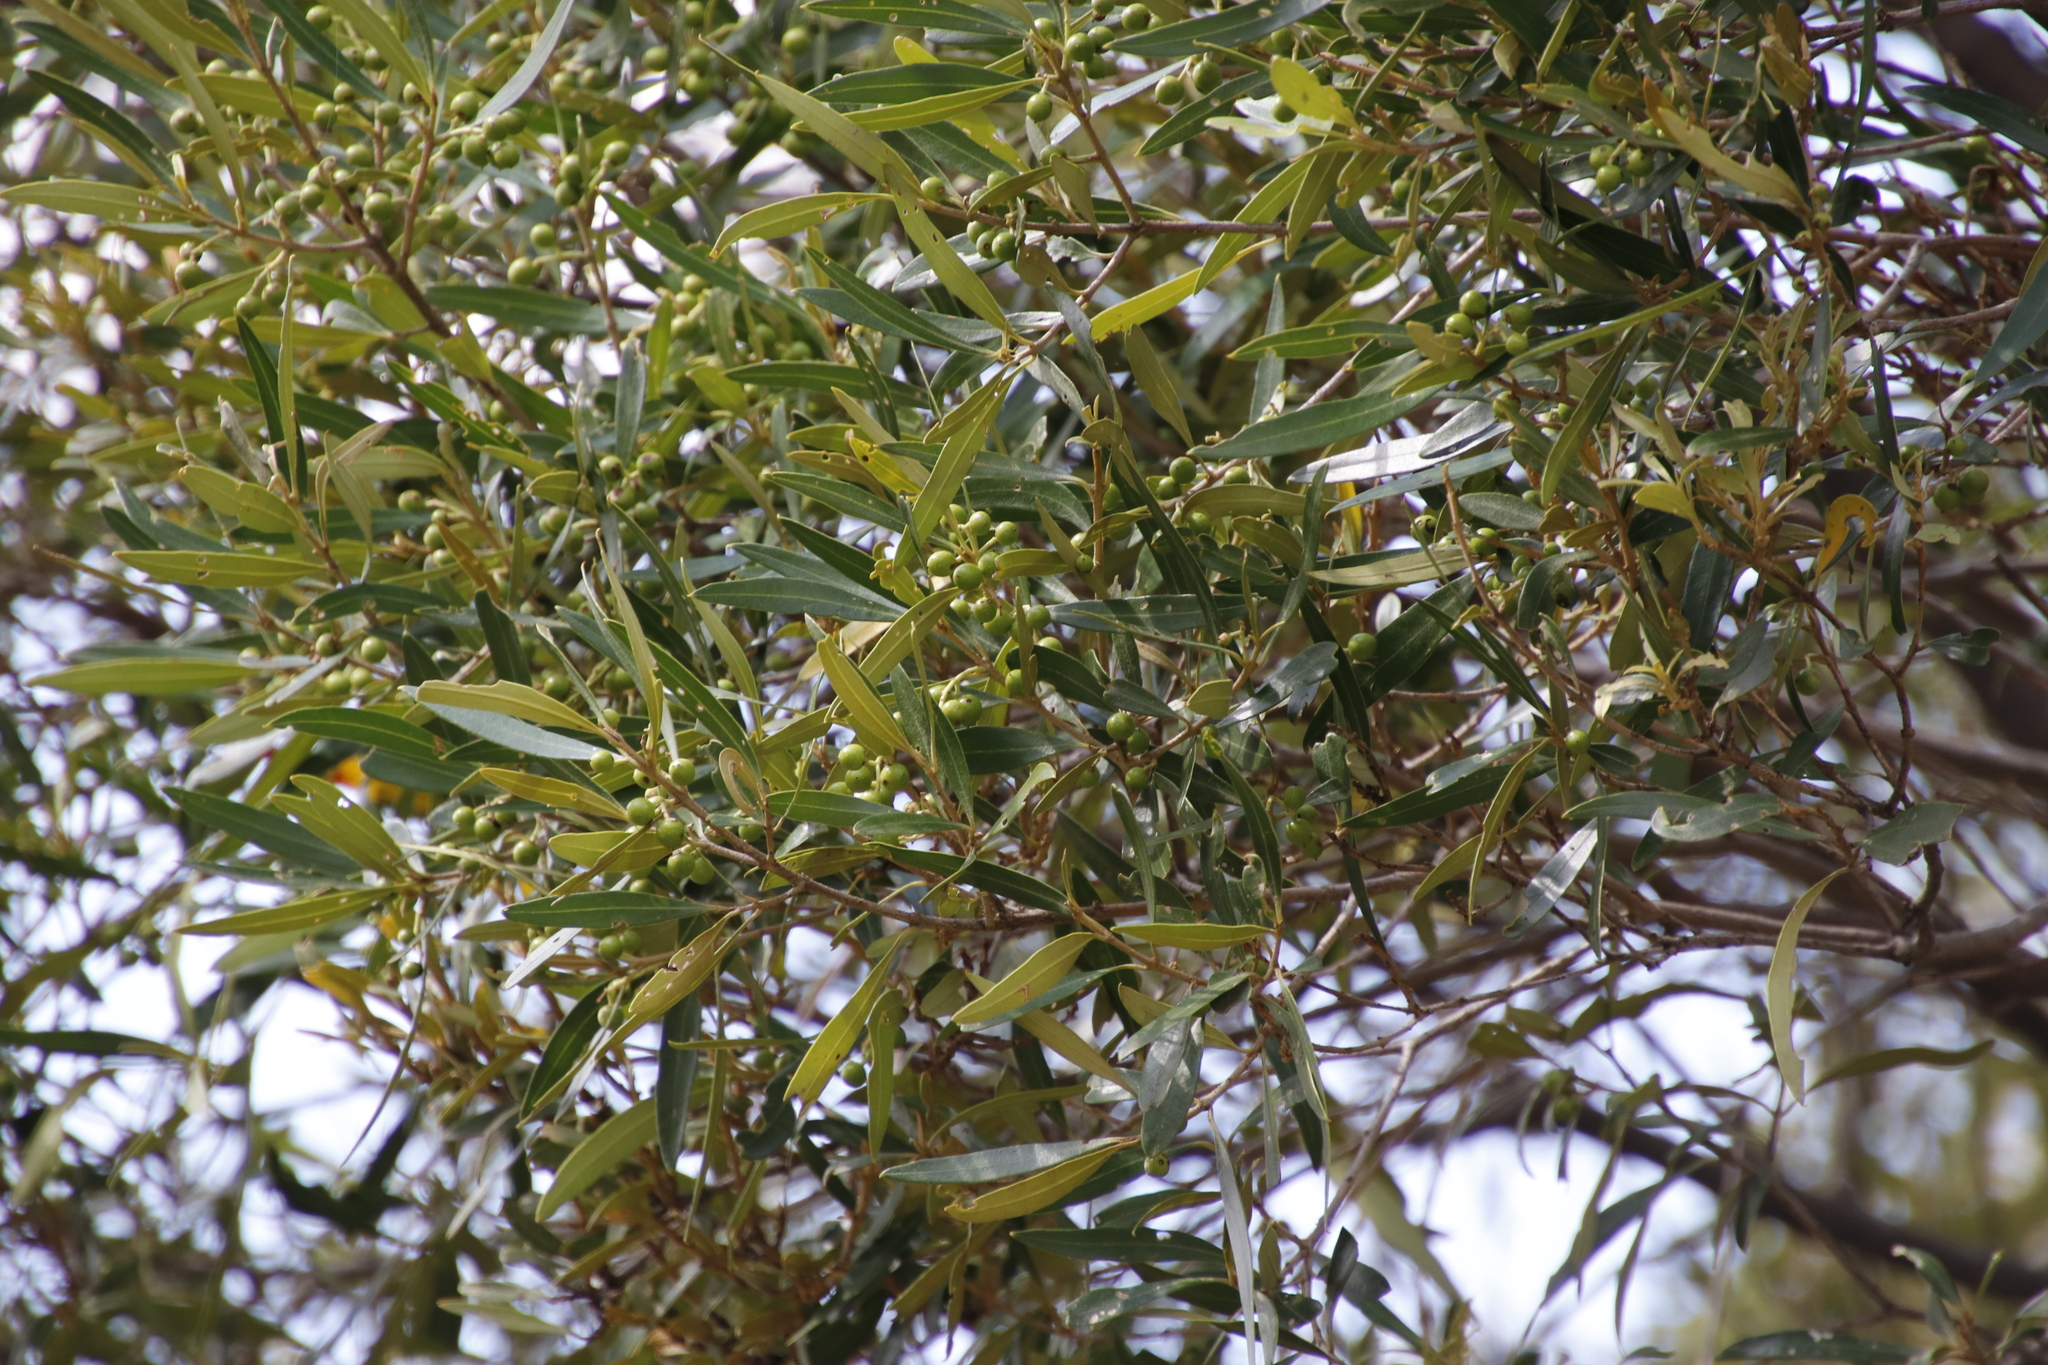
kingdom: Plantae
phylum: Tracheophyta
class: Magnoliopsida
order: Lamiales
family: Oleaceae
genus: Olea
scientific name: Olea europaea
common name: Olive
